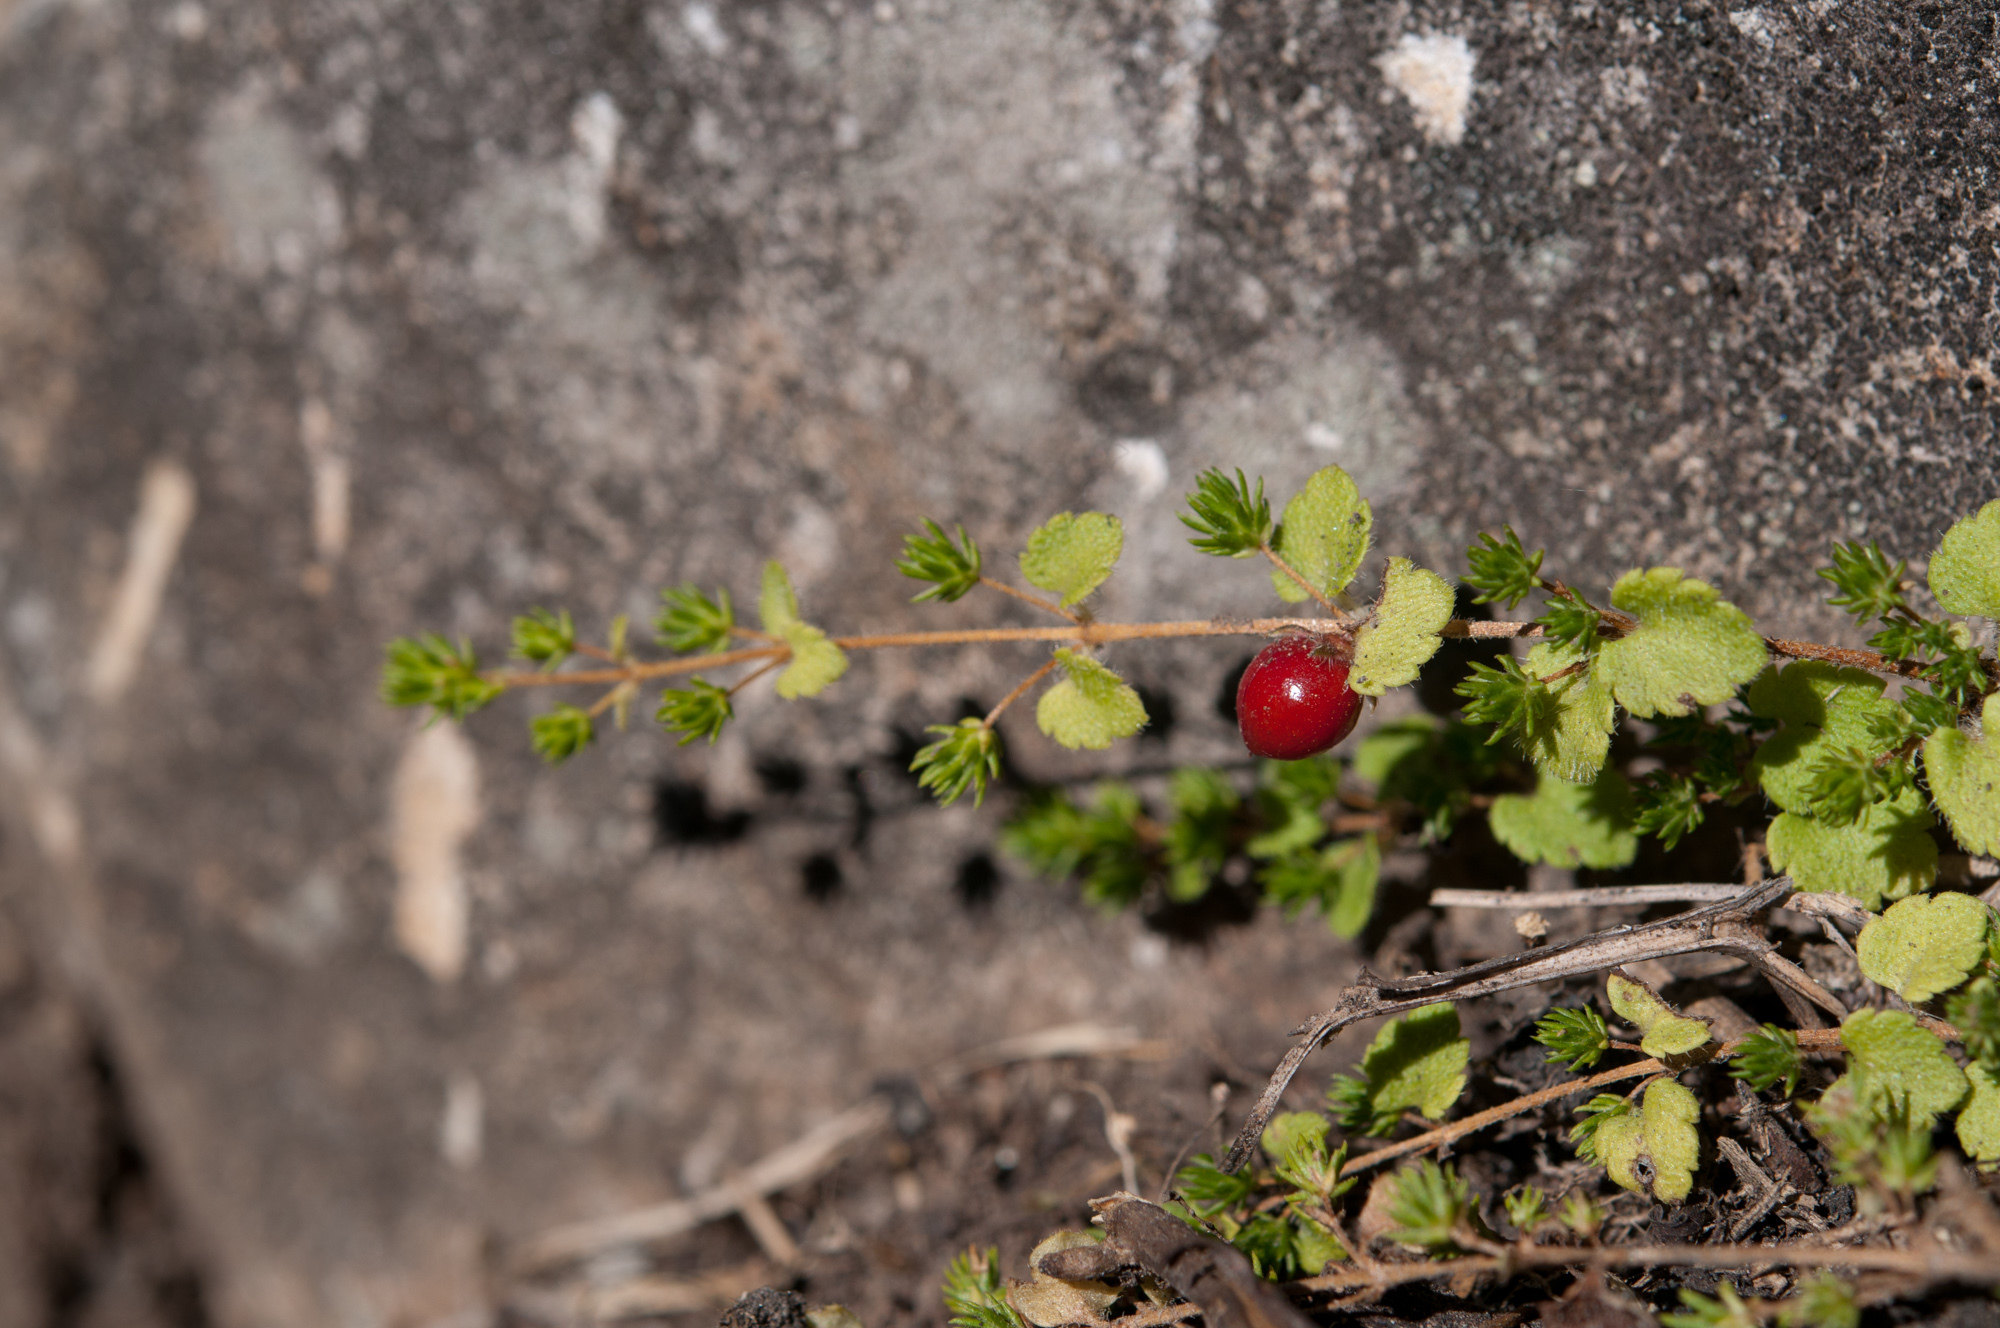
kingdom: Plantae
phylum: Tracheophyta
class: Magnoliopsida
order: Lamiales
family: Plantaginaceae
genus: Hemiphragma
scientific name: Hemiphragma heterophyllum
